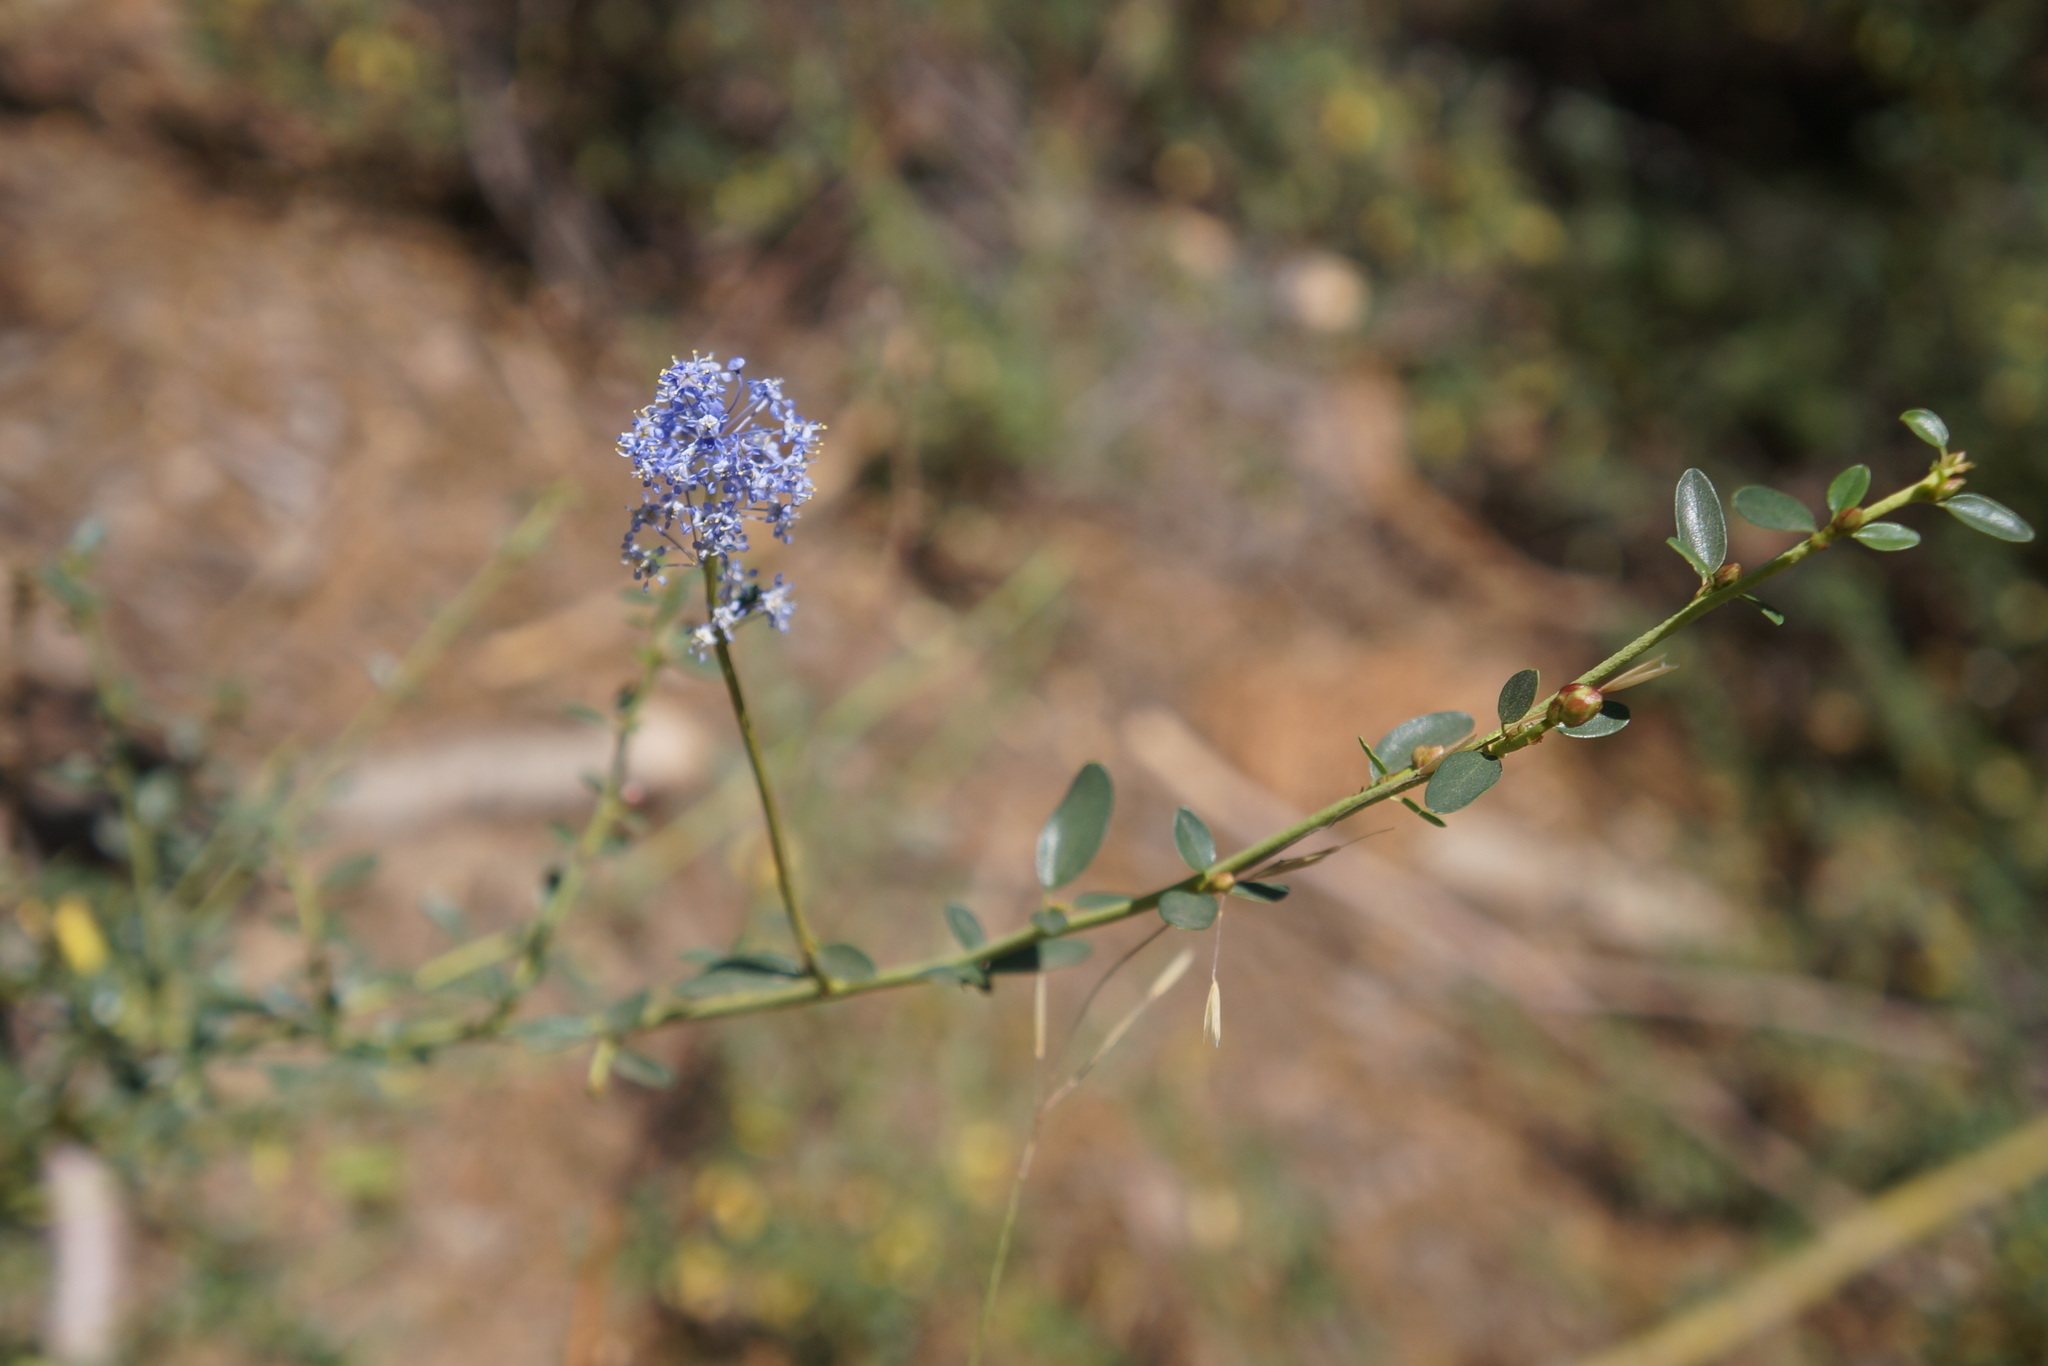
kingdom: Plantae
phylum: Tracheophyta
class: Magnoliopsida
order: Rosales
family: Rhamnaceae
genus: Ceanothus
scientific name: Ceanothus parvifolius
